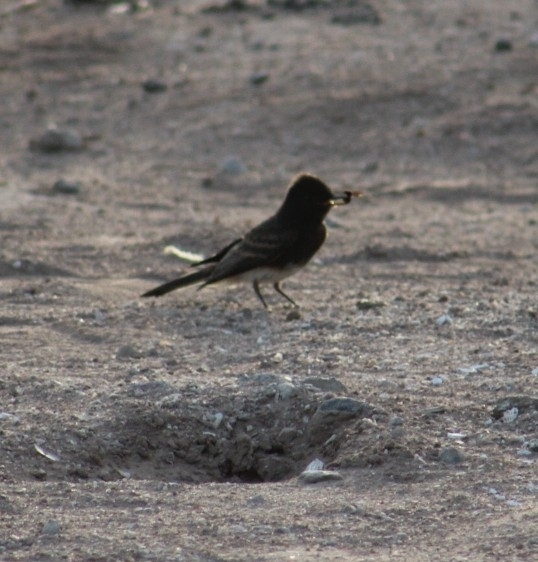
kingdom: Animalia
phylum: Chordata
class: Aves
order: Passeriformes
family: Tyrannidae
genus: Sayornis
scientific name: Sayornis nigricans
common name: Black phoebe
